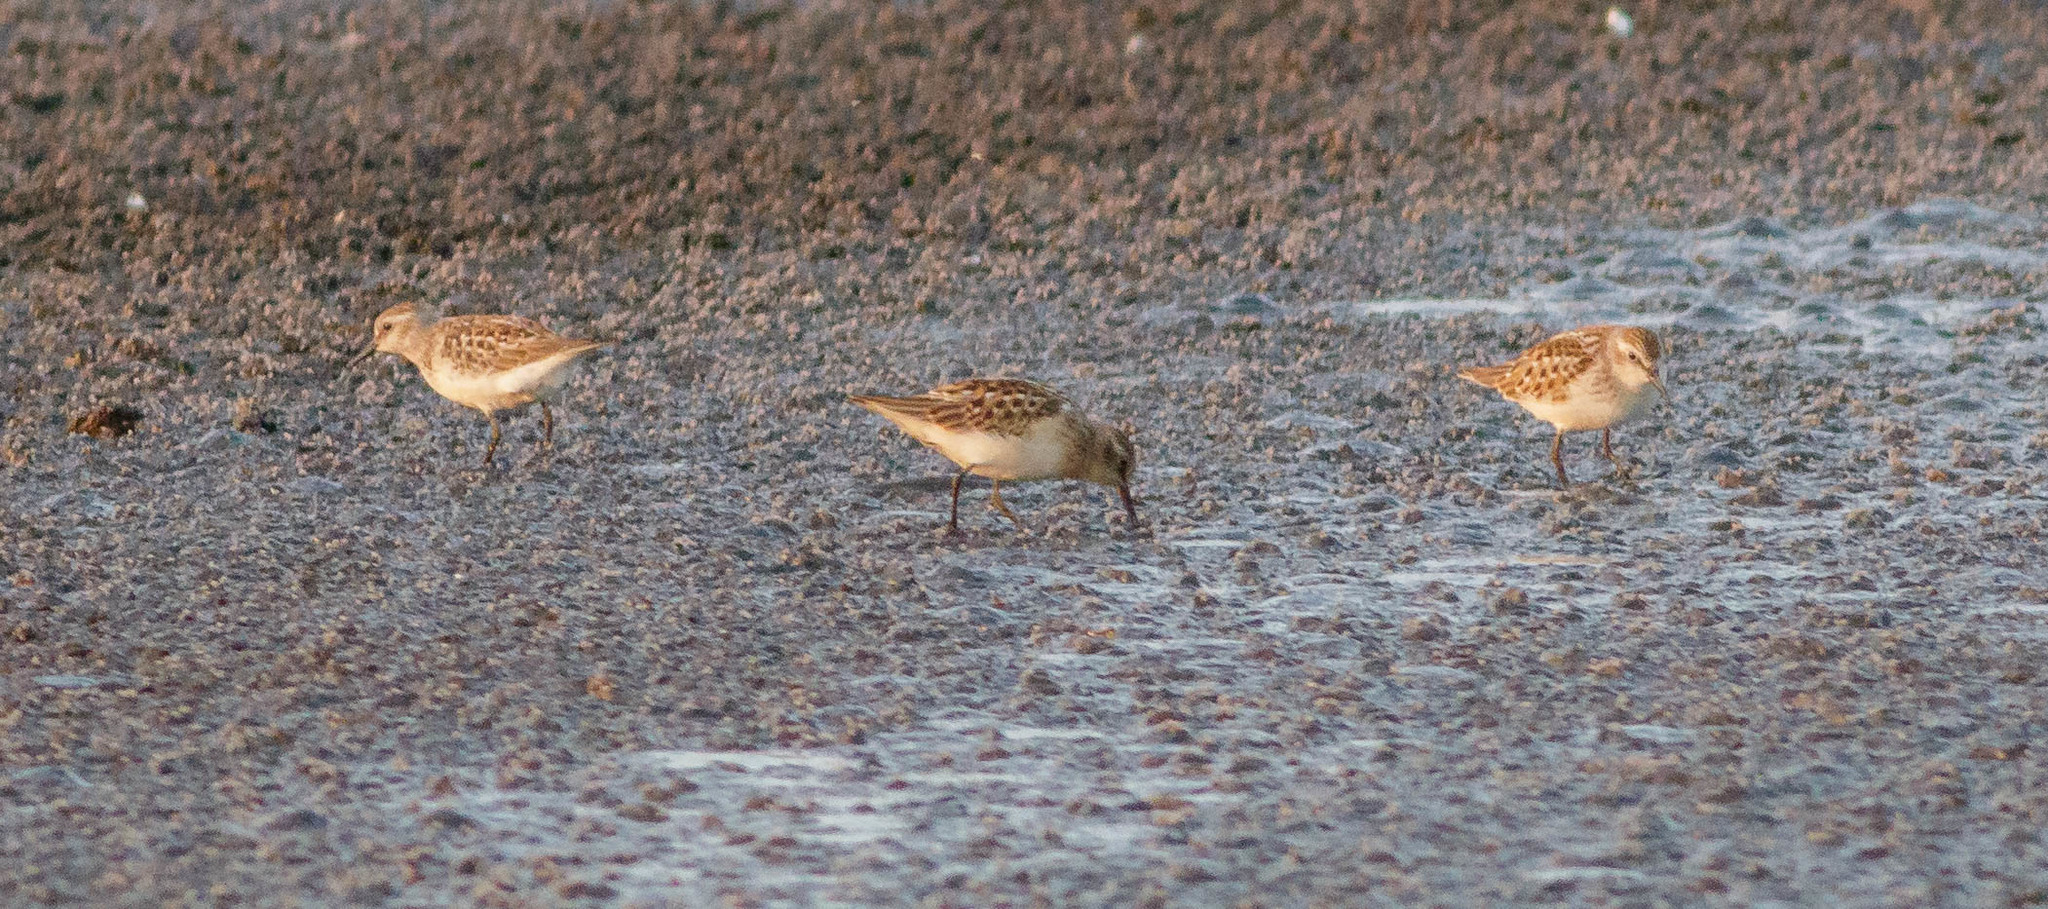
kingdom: Animalia
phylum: Chordata
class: Aves
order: Charadriiformes
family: Scolopacidae
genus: Calidris
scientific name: Calidris minutilla
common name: Least sandpiper
